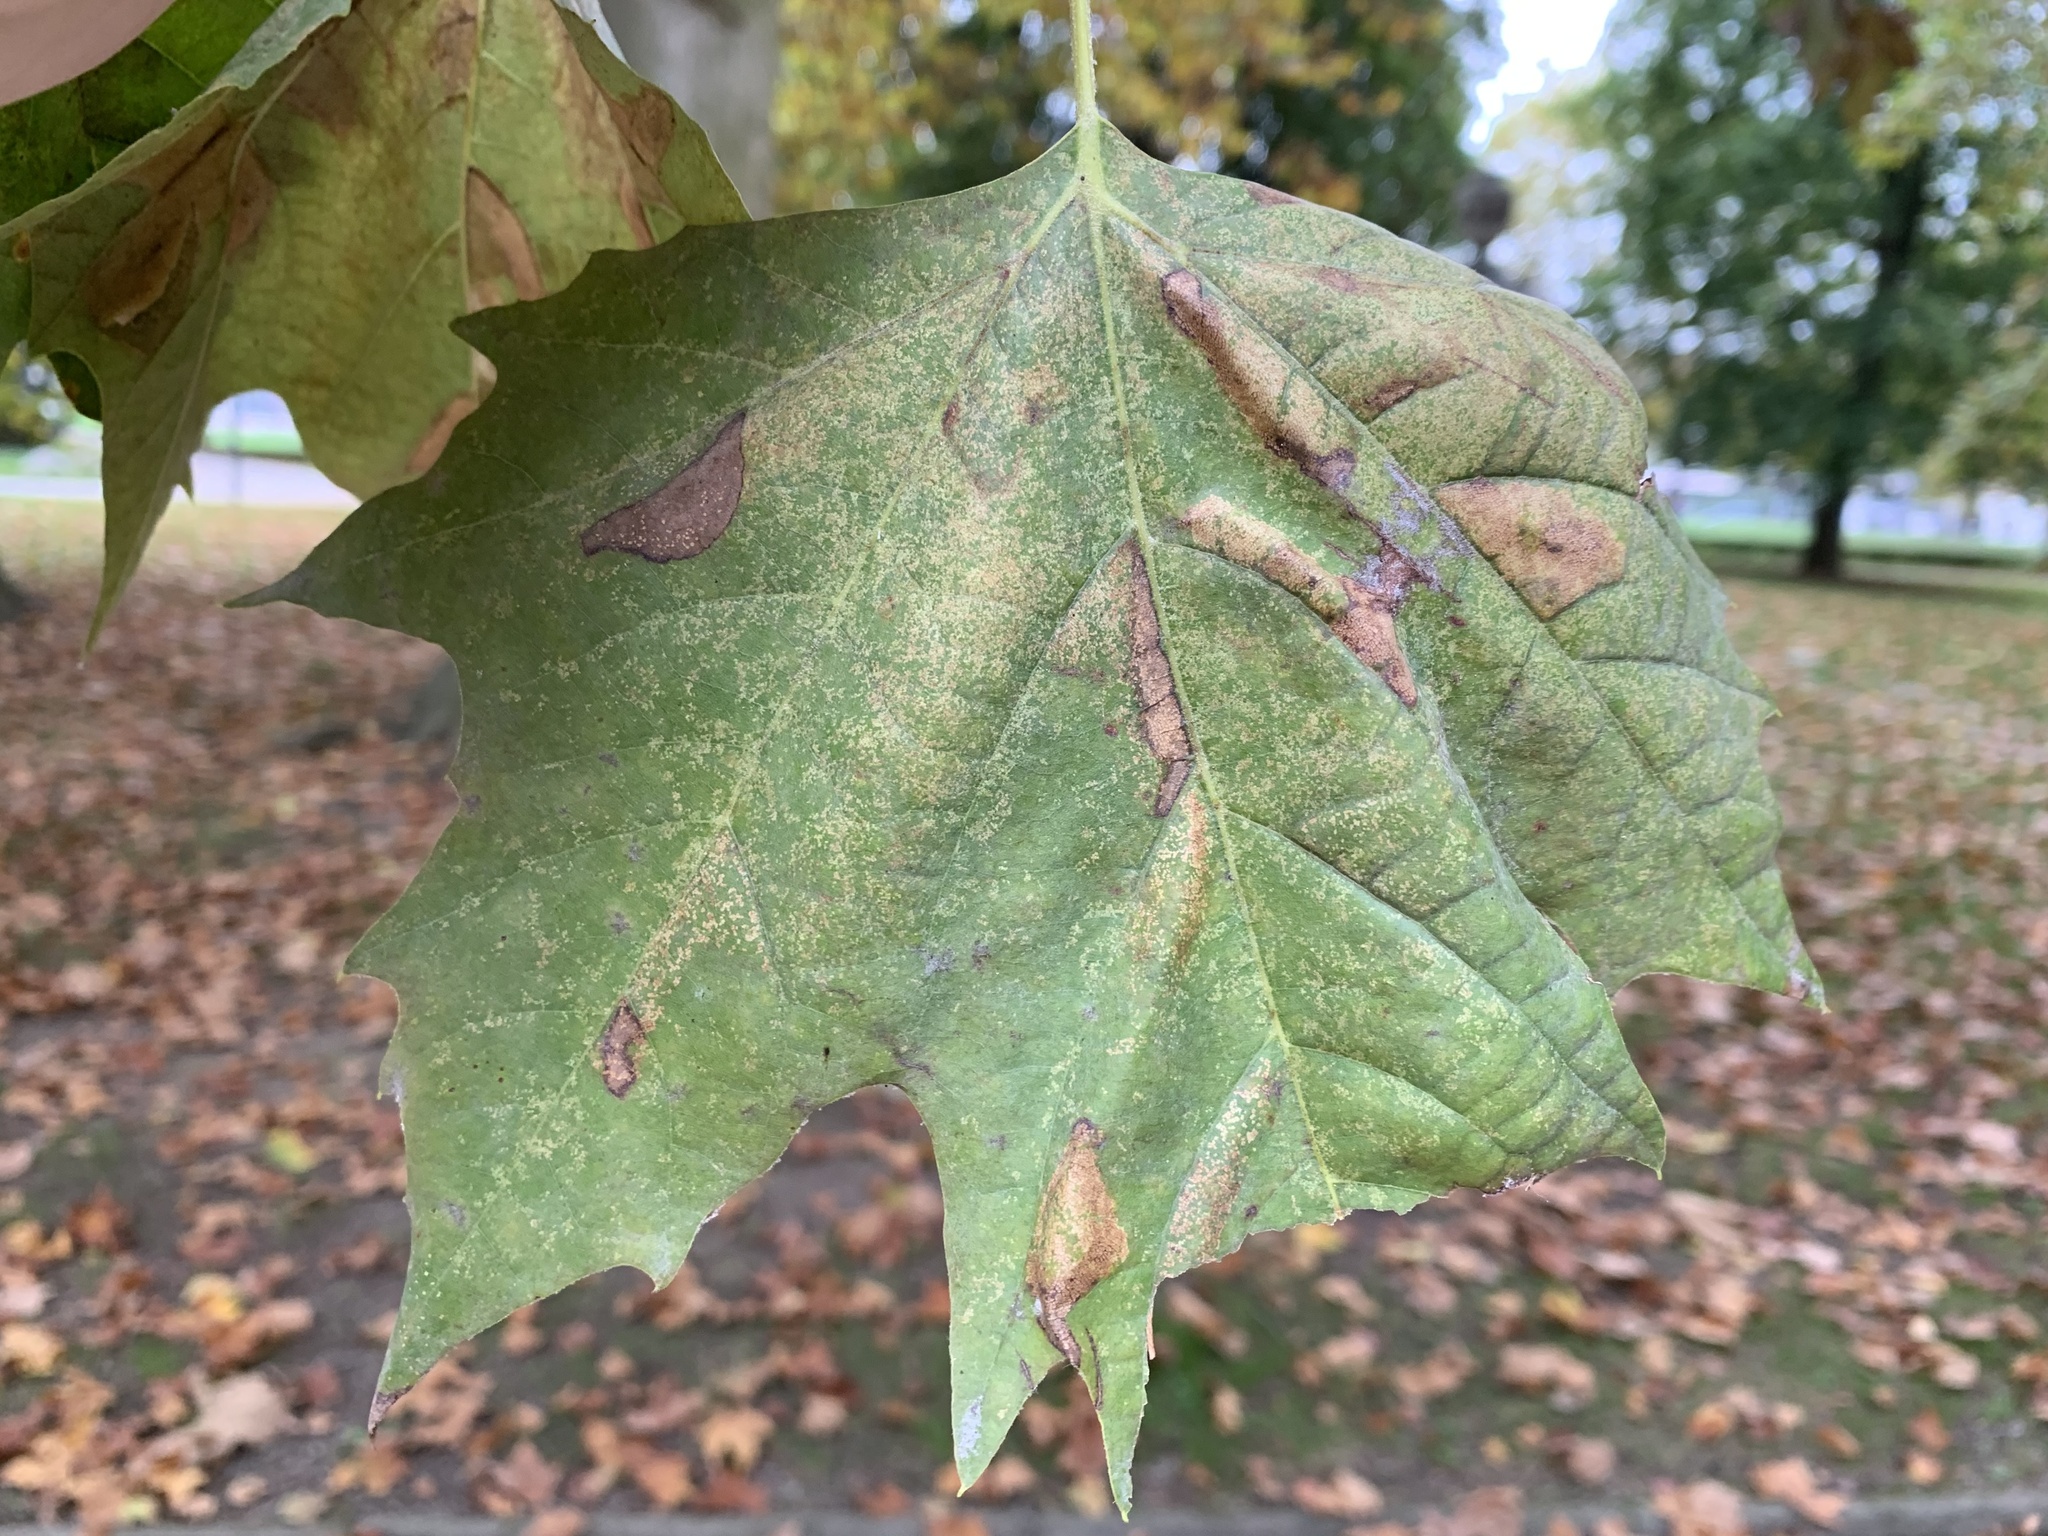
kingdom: Animalia
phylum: Arthropoda
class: Insecta
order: Lepidoptera
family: Gracillariidae
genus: Phyllonorycter
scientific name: Phyllonorycter platani
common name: London midget
